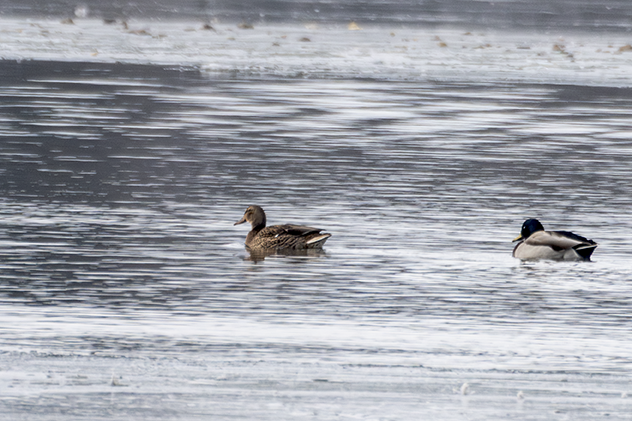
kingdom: Animalia
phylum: Chordata
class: Aves
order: Anseriformes
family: Anatidae
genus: Anas
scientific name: Anas platyrhynchos
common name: Mallard
